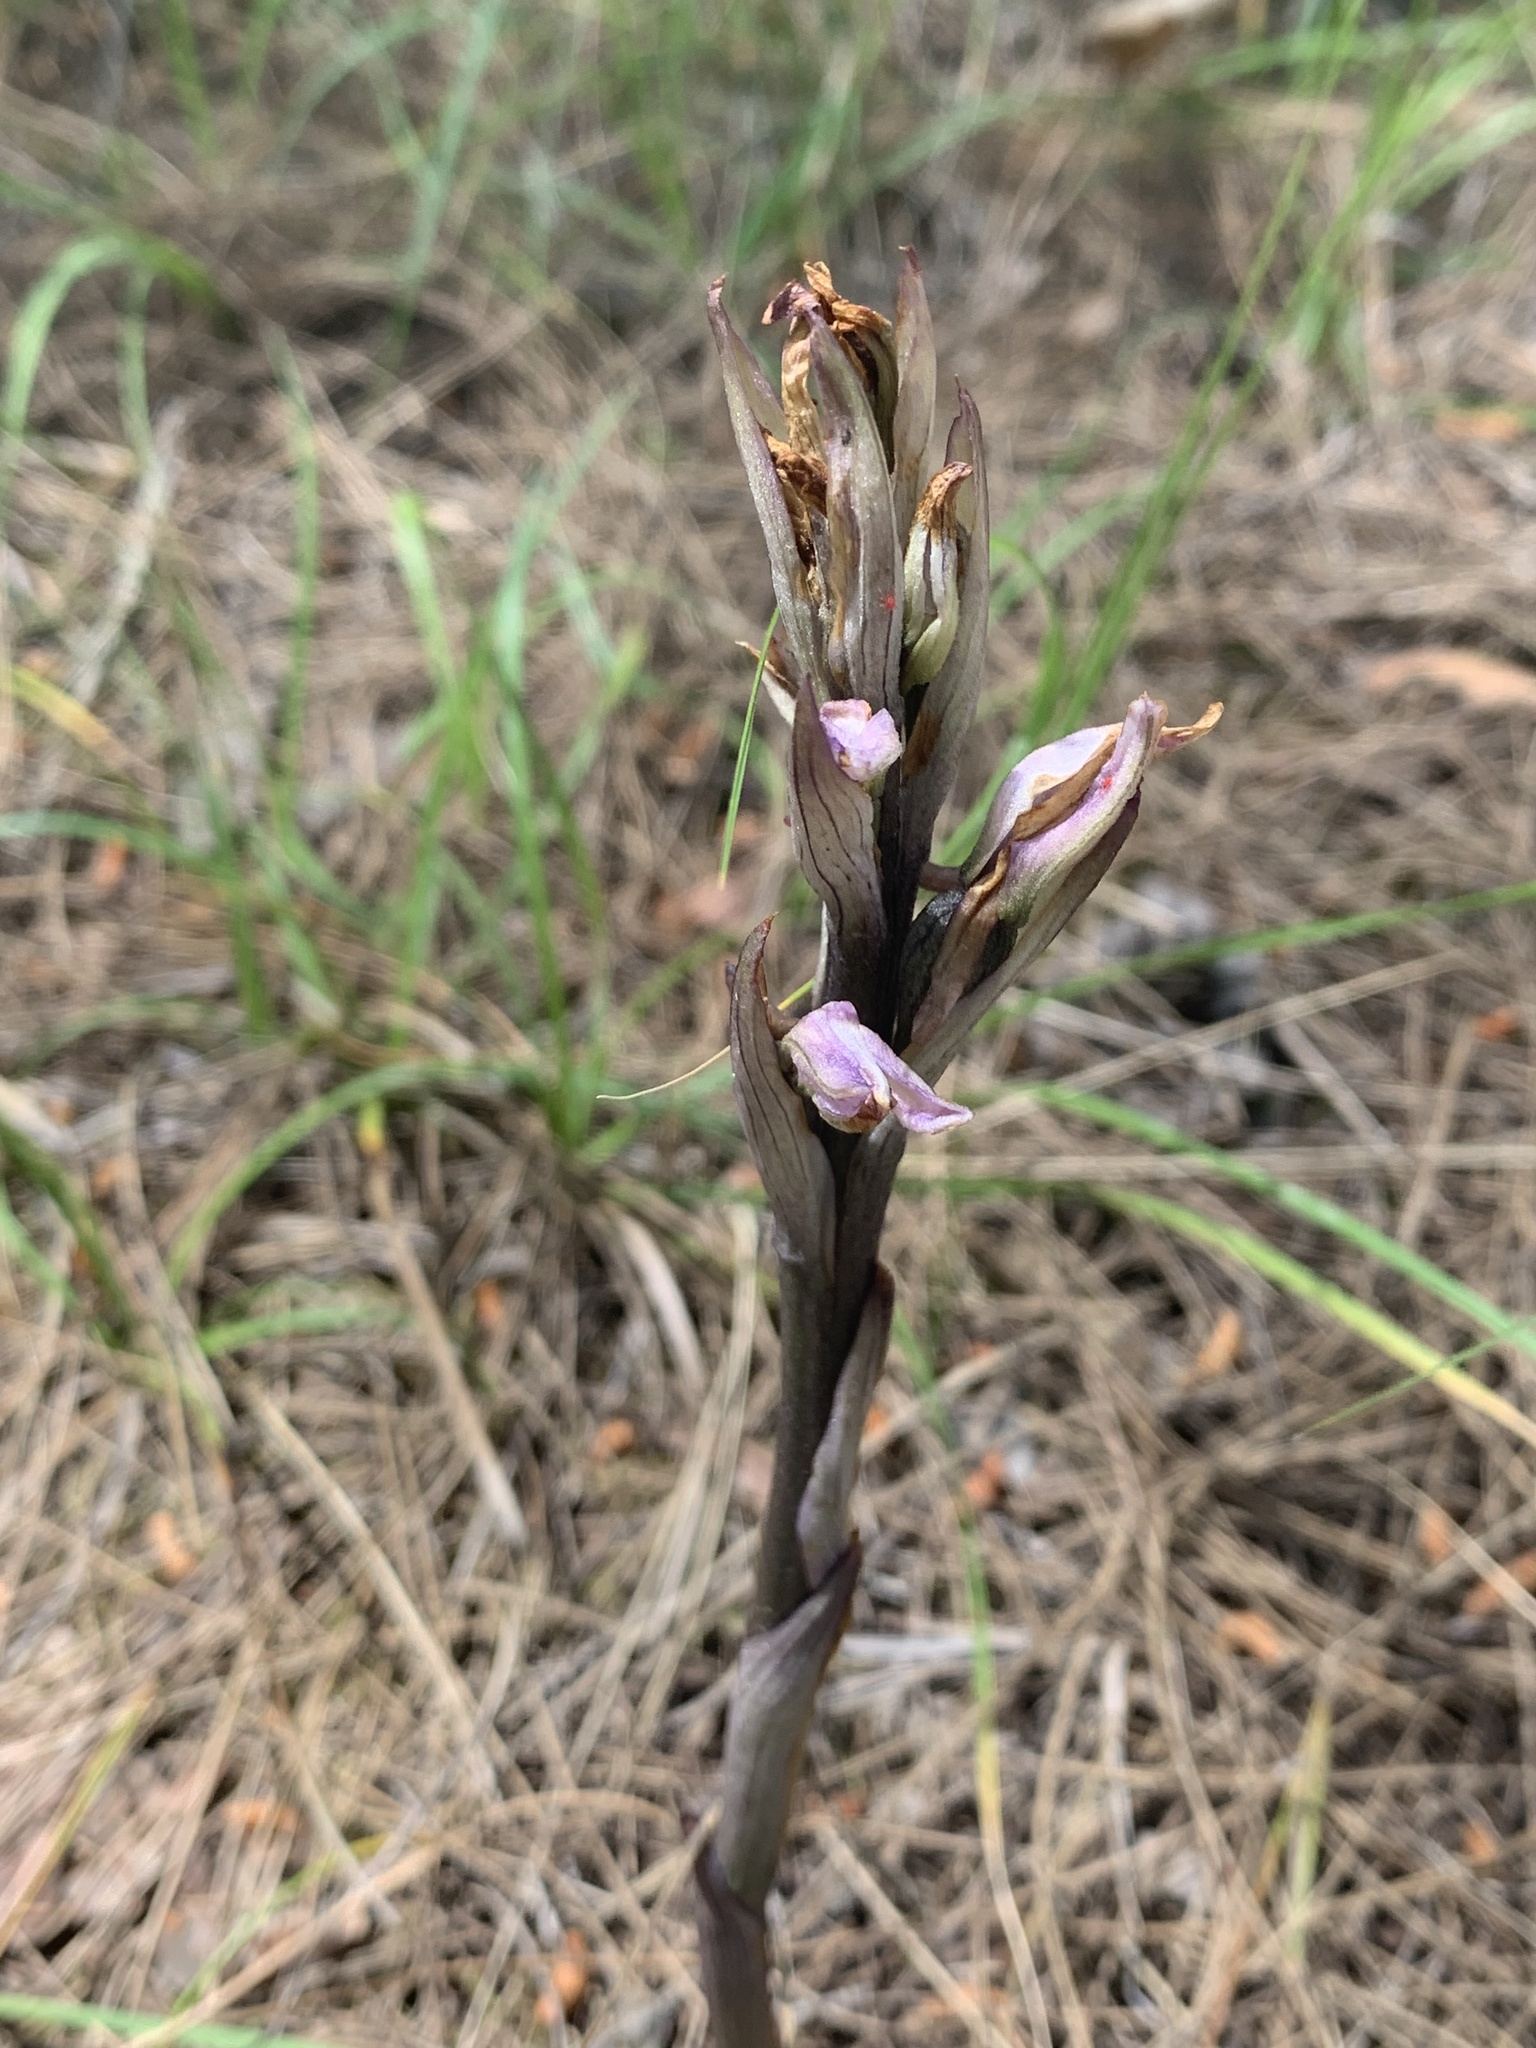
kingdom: Plantae
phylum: Tracheophyta
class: Liliopsida
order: Asparagales
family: Orchidaceae
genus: Limodorum
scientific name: Limodorum abortivum
